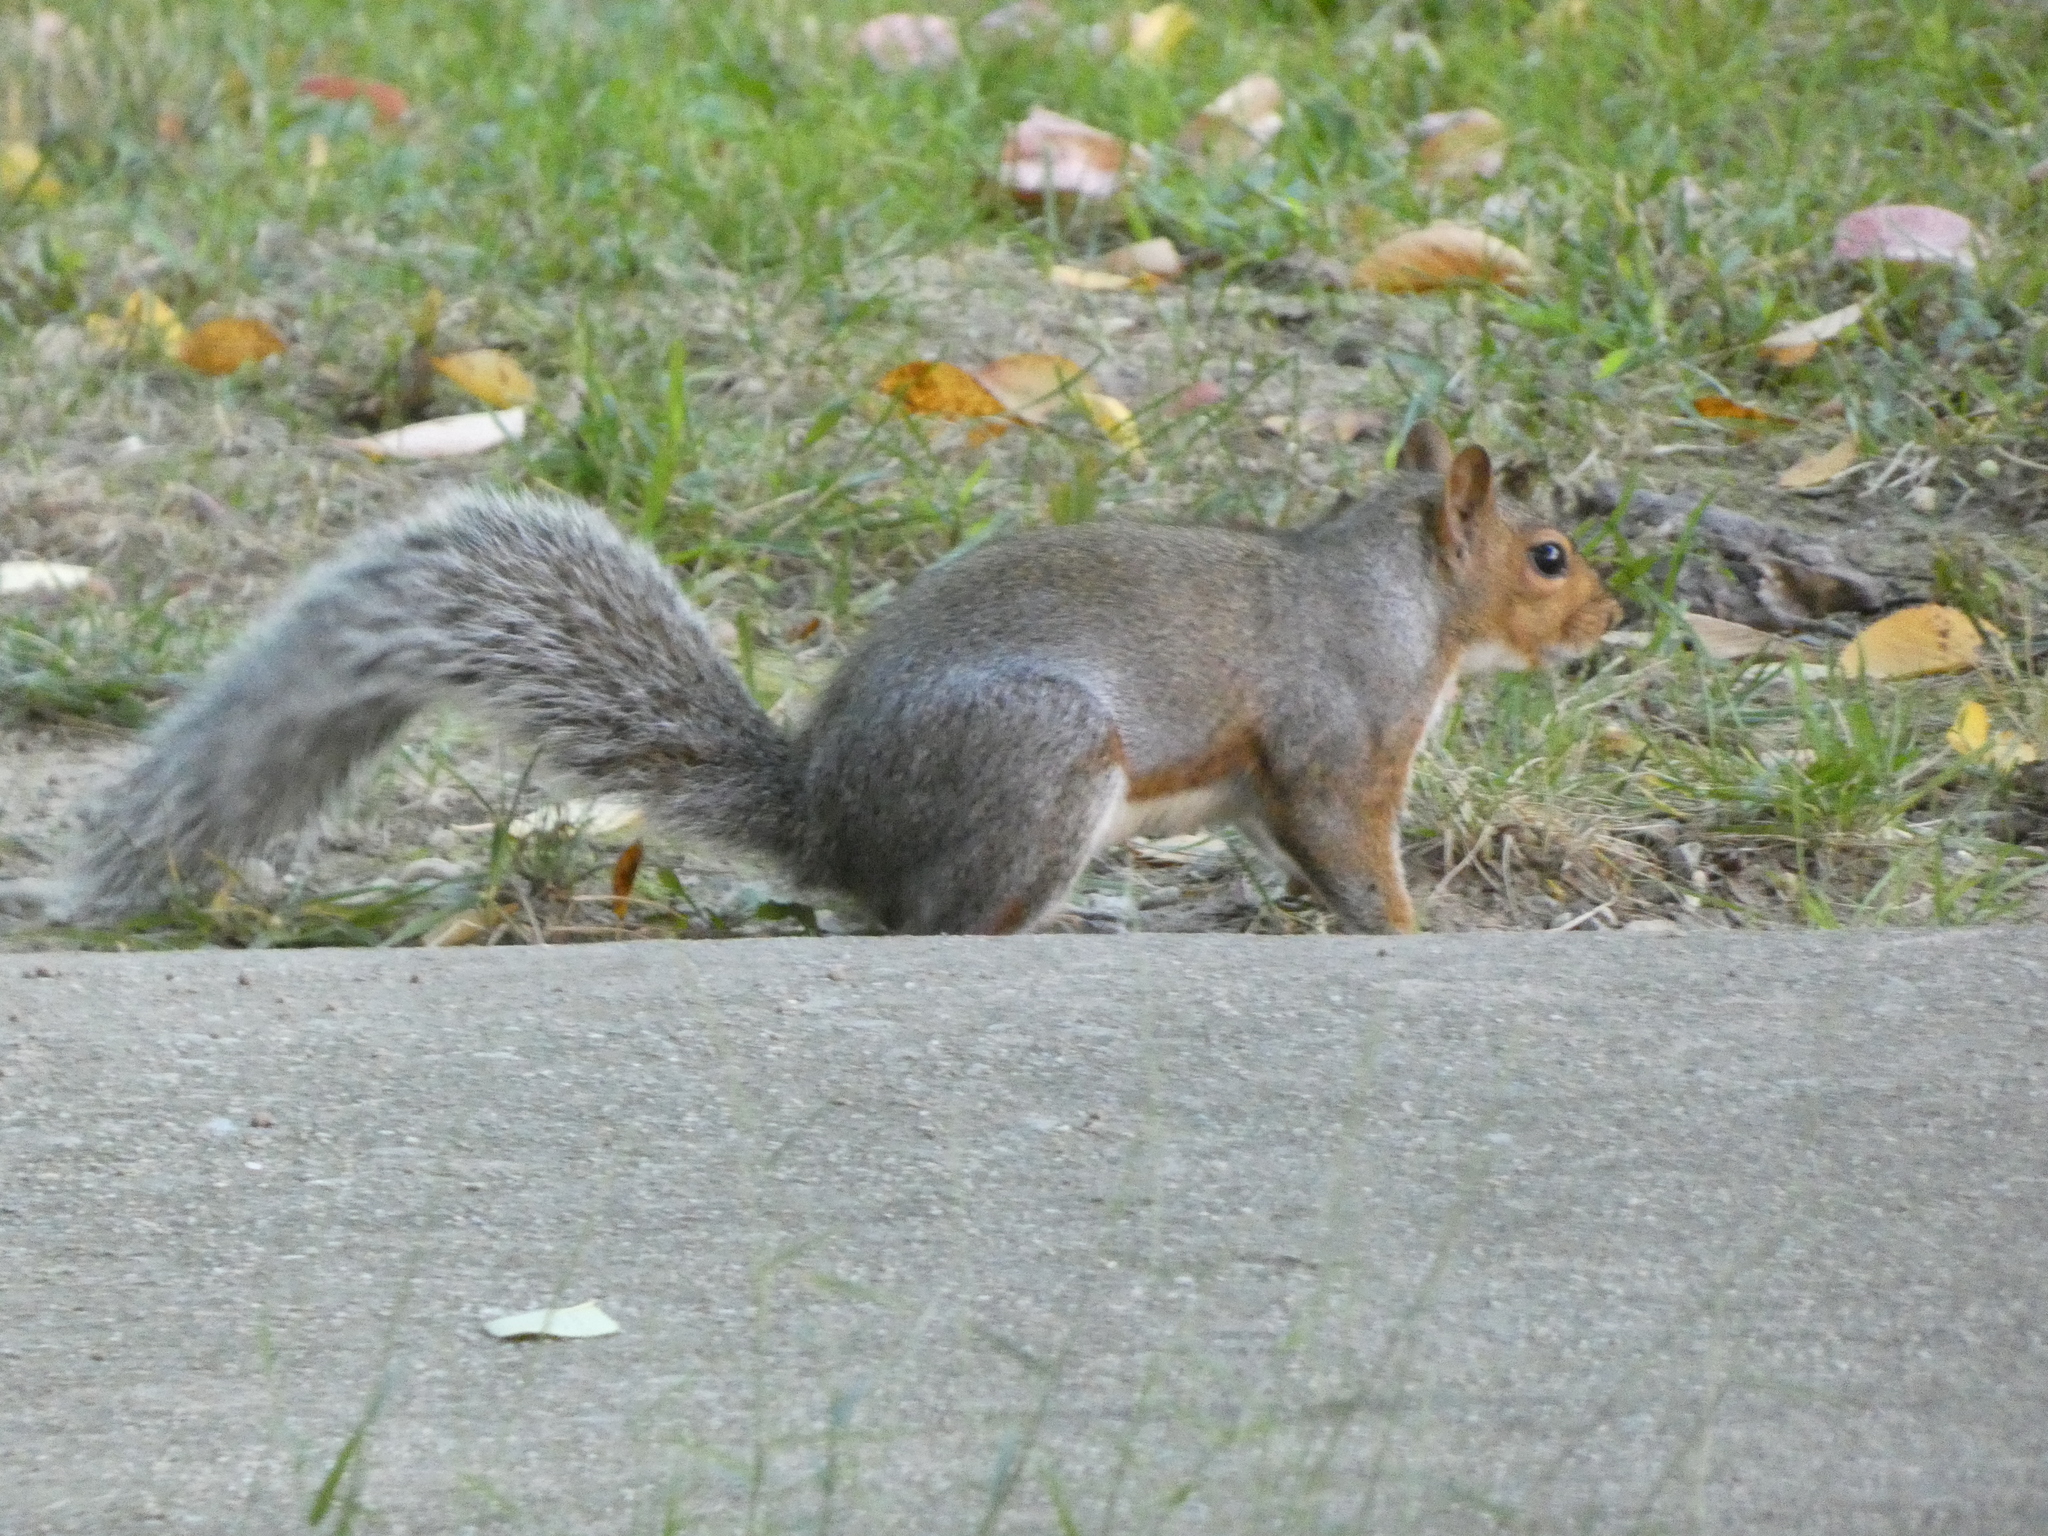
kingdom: Animalia
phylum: Chordata
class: Mammalia
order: Rodentia
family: Sciuridae
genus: Sciurus
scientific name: Sciurus carolinensis
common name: Eastern gray squirrel
